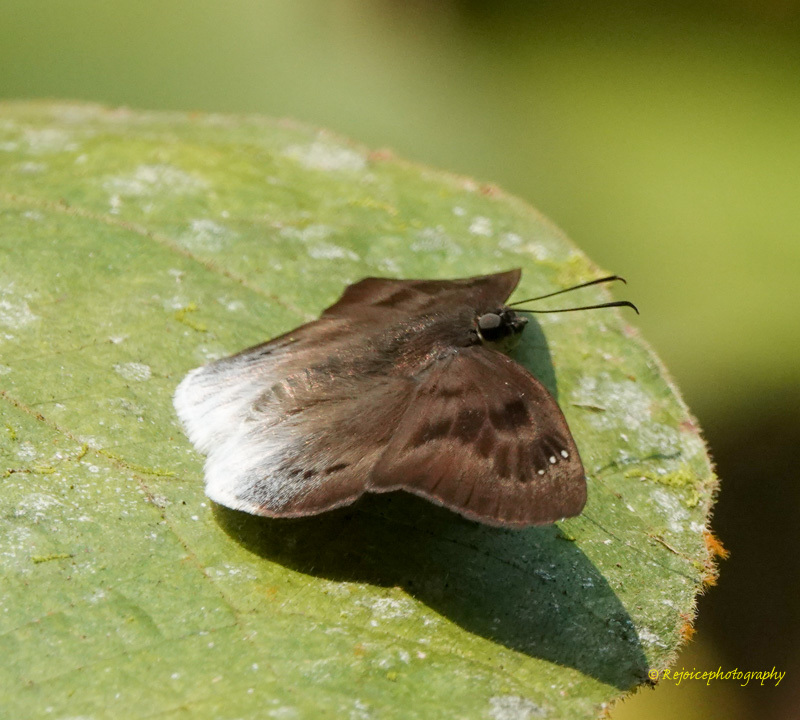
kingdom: Animalia
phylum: Arthropoda
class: Insecta
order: Lepidoptera
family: Hesperiidae
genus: Tagiades
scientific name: Tagiades gana
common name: Suffused snow flat
